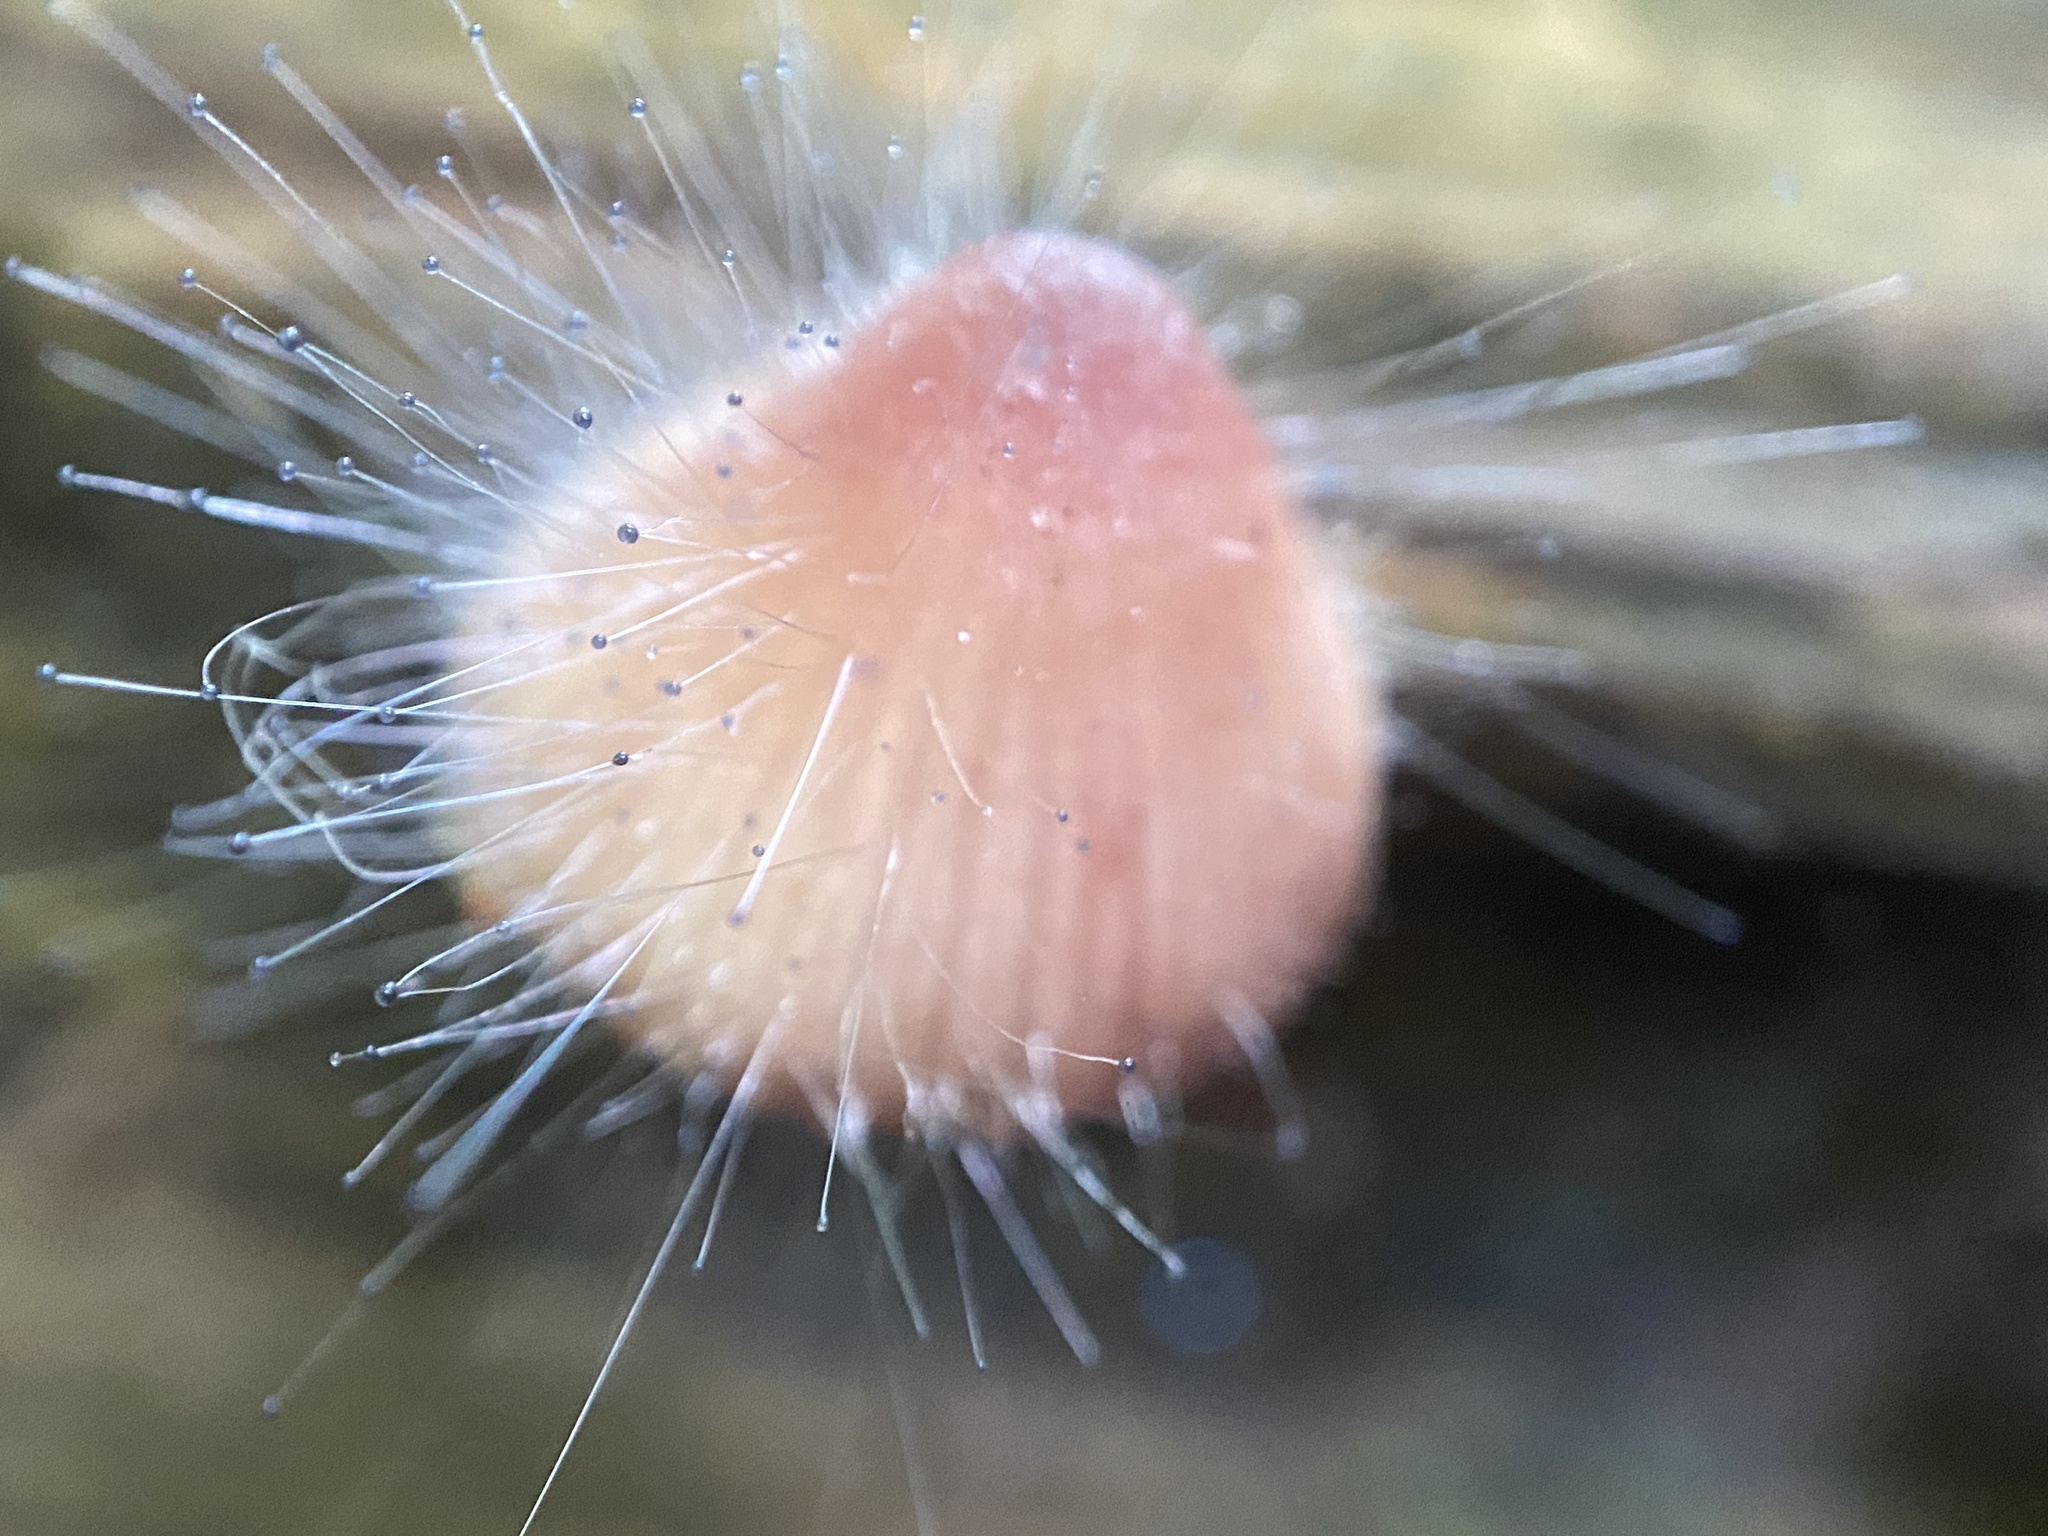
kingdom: Fungi
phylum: Mucoromycota
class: Mucoromycetes
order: Mucorales
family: Phycomycetaceae
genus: Spinellus
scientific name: Spinellus fusiger
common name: Bonnet mould
